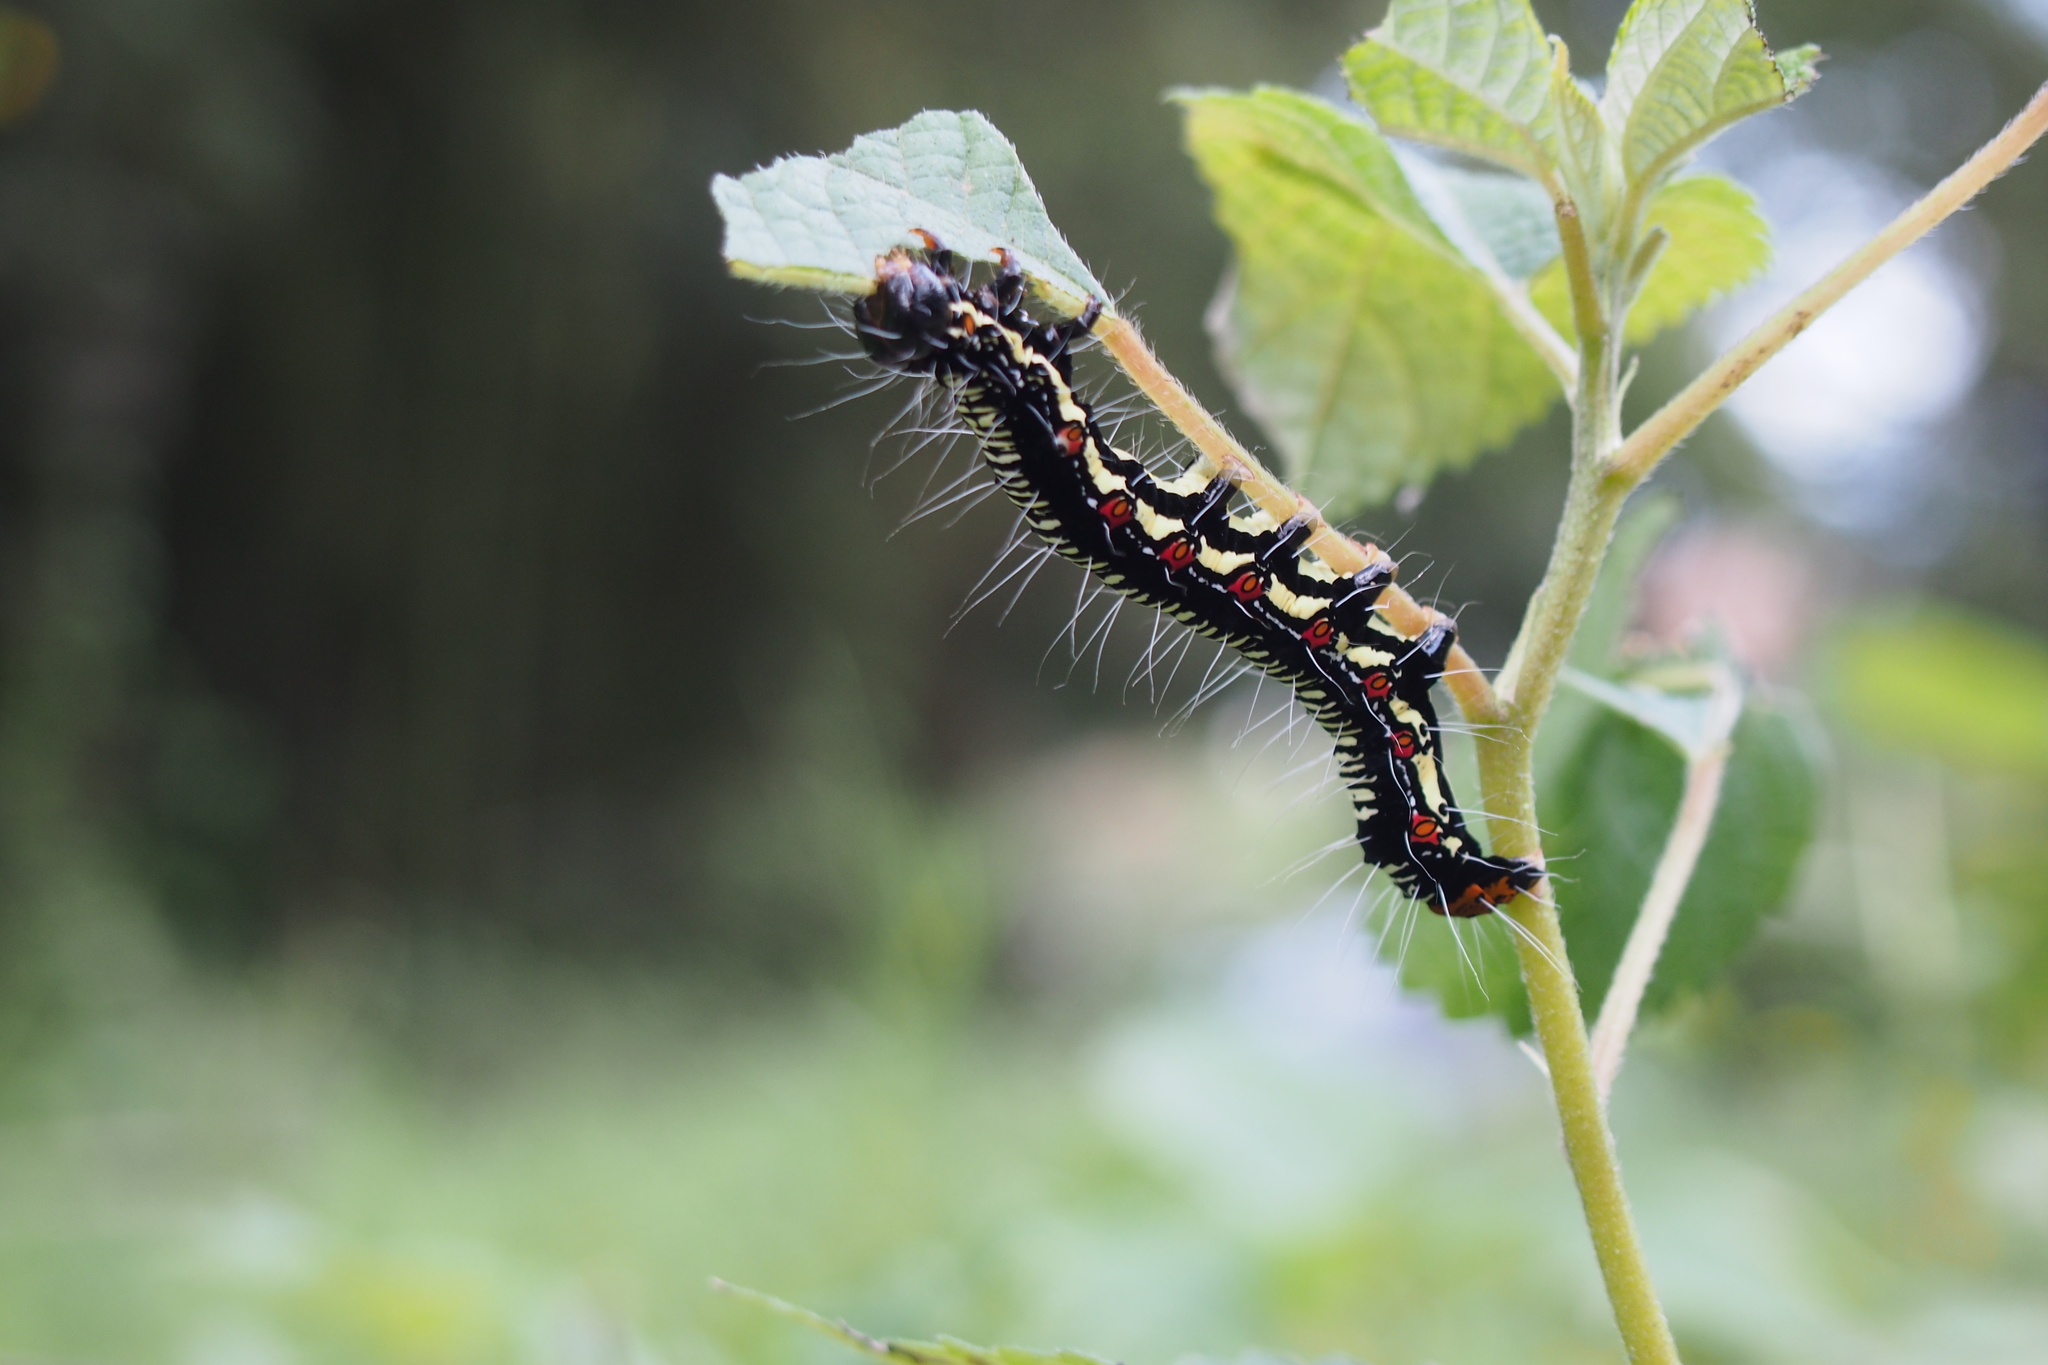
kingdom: Animalia
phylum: Arthropoda
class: Insecta
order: Lepidoptera
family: Erebidae
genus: Arcte
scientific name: Arcte coerula
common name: Ramie moth
